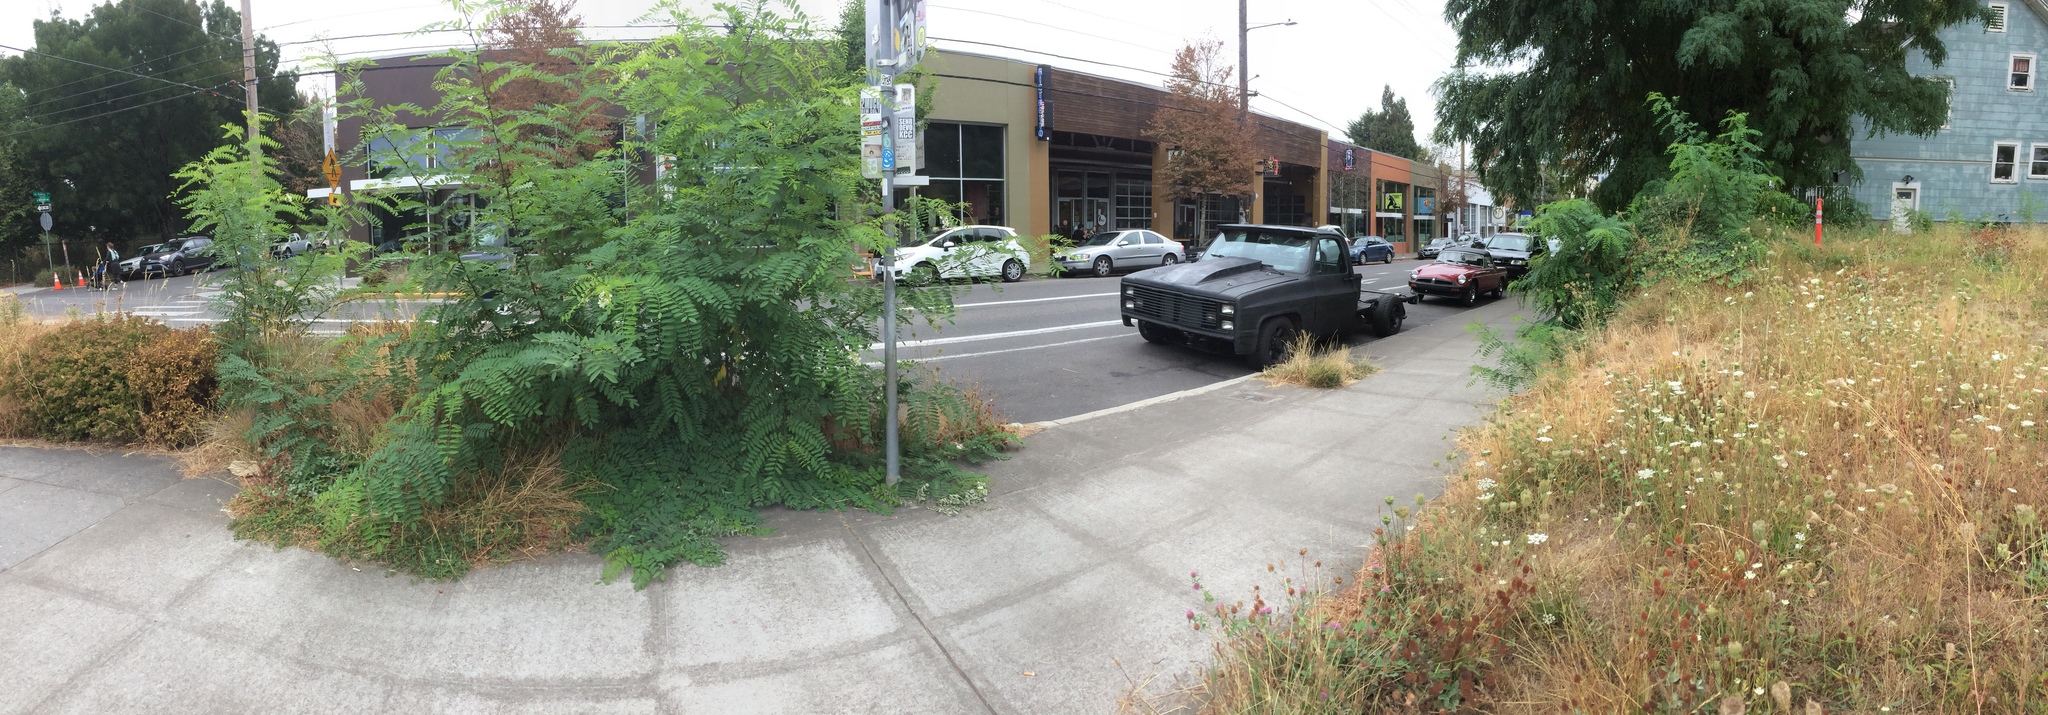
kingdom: Plantae
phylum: Tracheophyta
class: Magnoliopsida
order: Fabales
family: Fabaceae
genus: Robinia
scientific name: Robinia pseudoacacia
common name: Black locust
